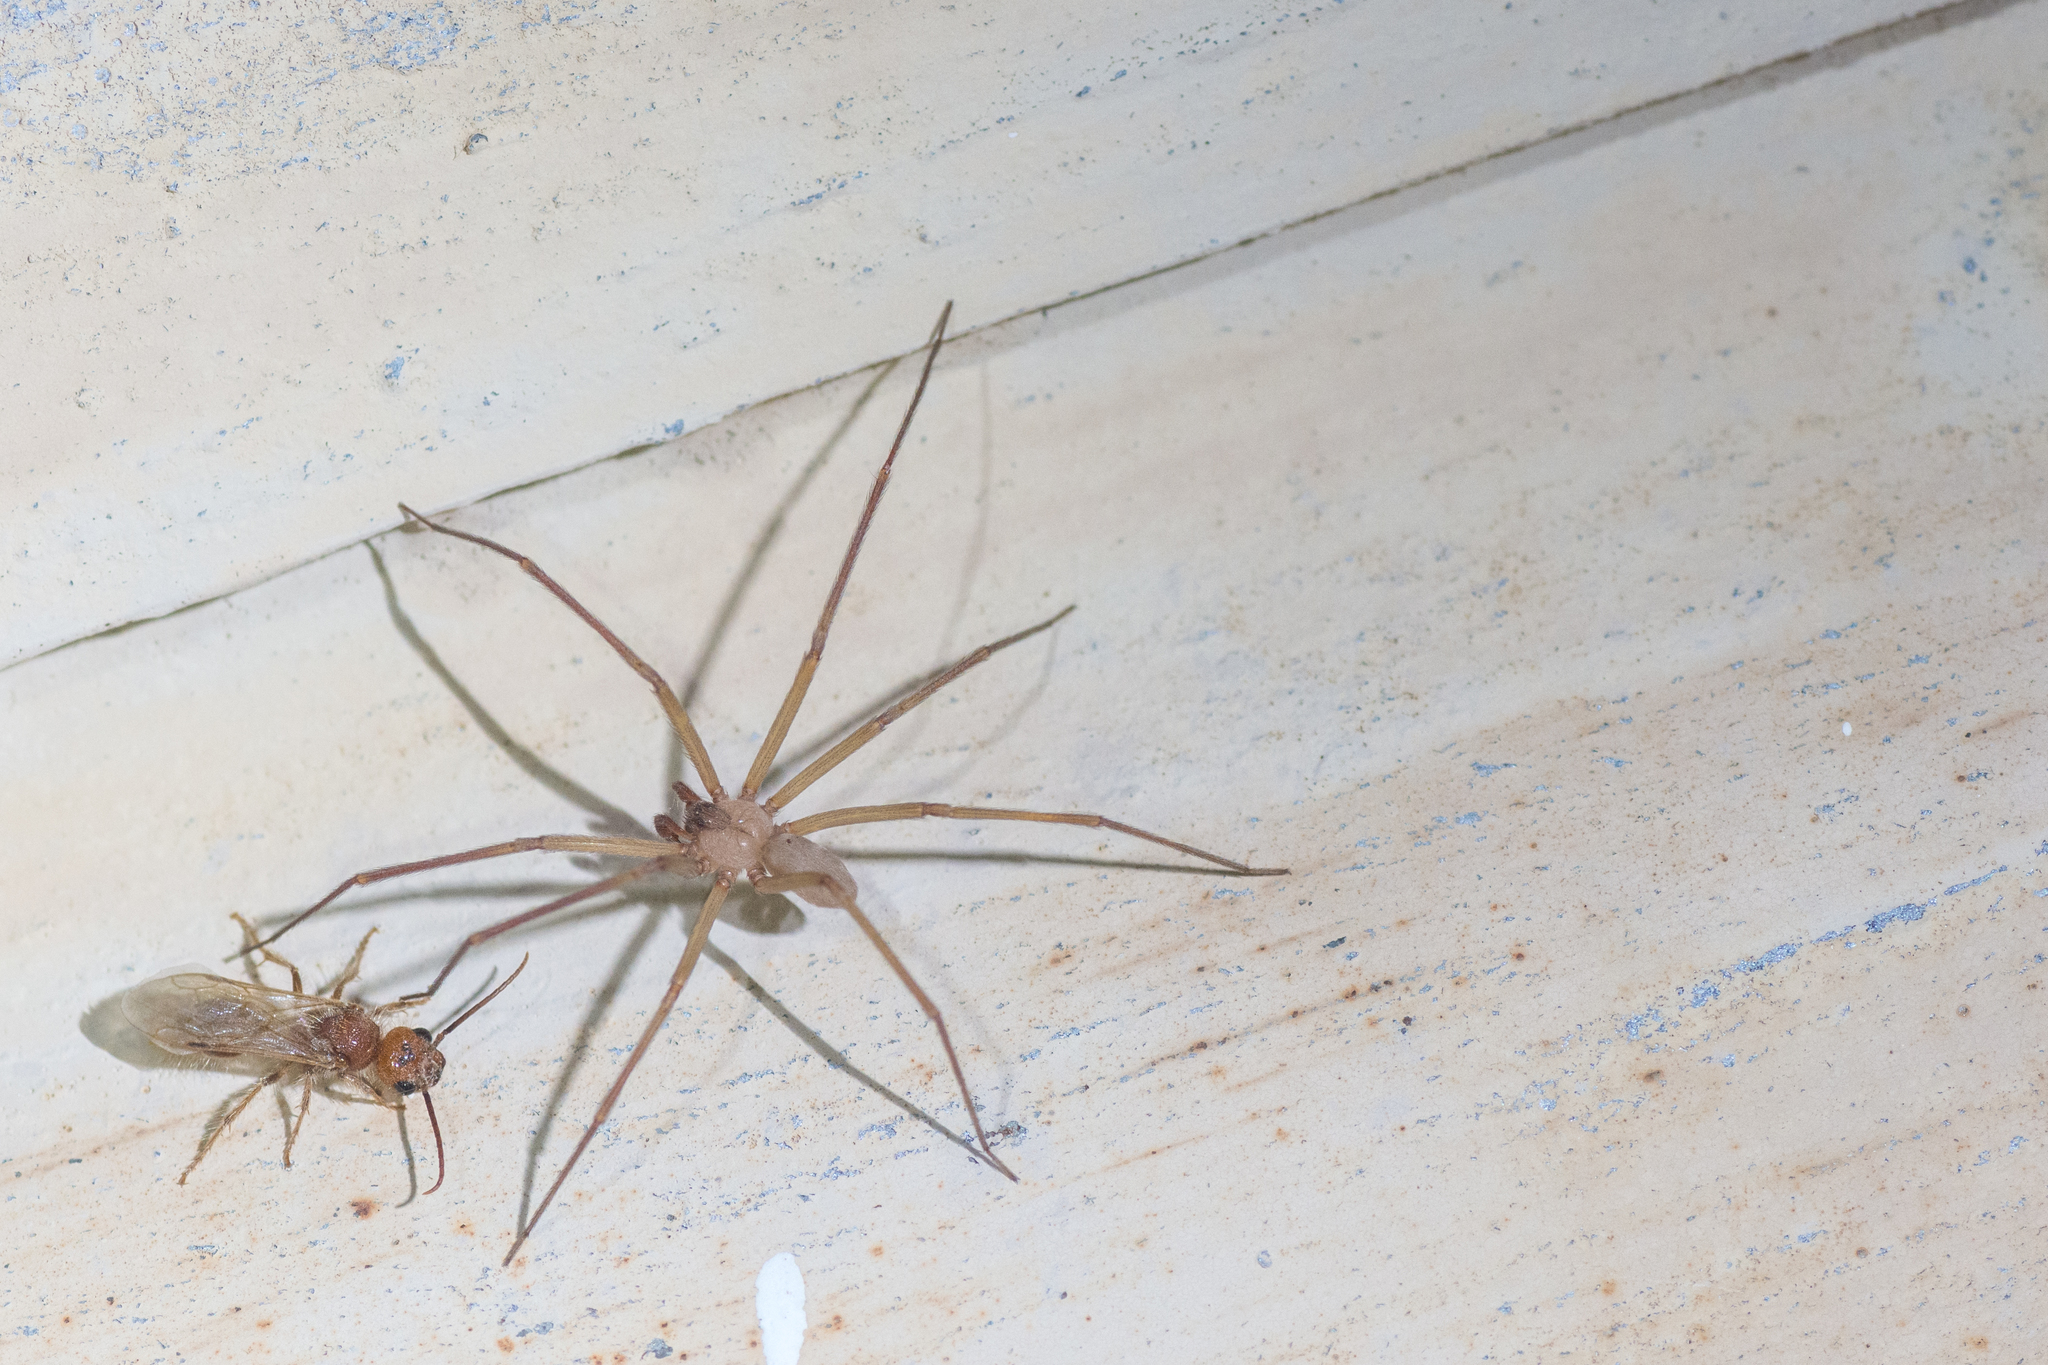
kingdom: Animalia
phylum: Arthropoda
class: Arachnida
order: Araneae
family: Sicariidae
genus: Loxosceles
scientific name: Loxosceles apachea
